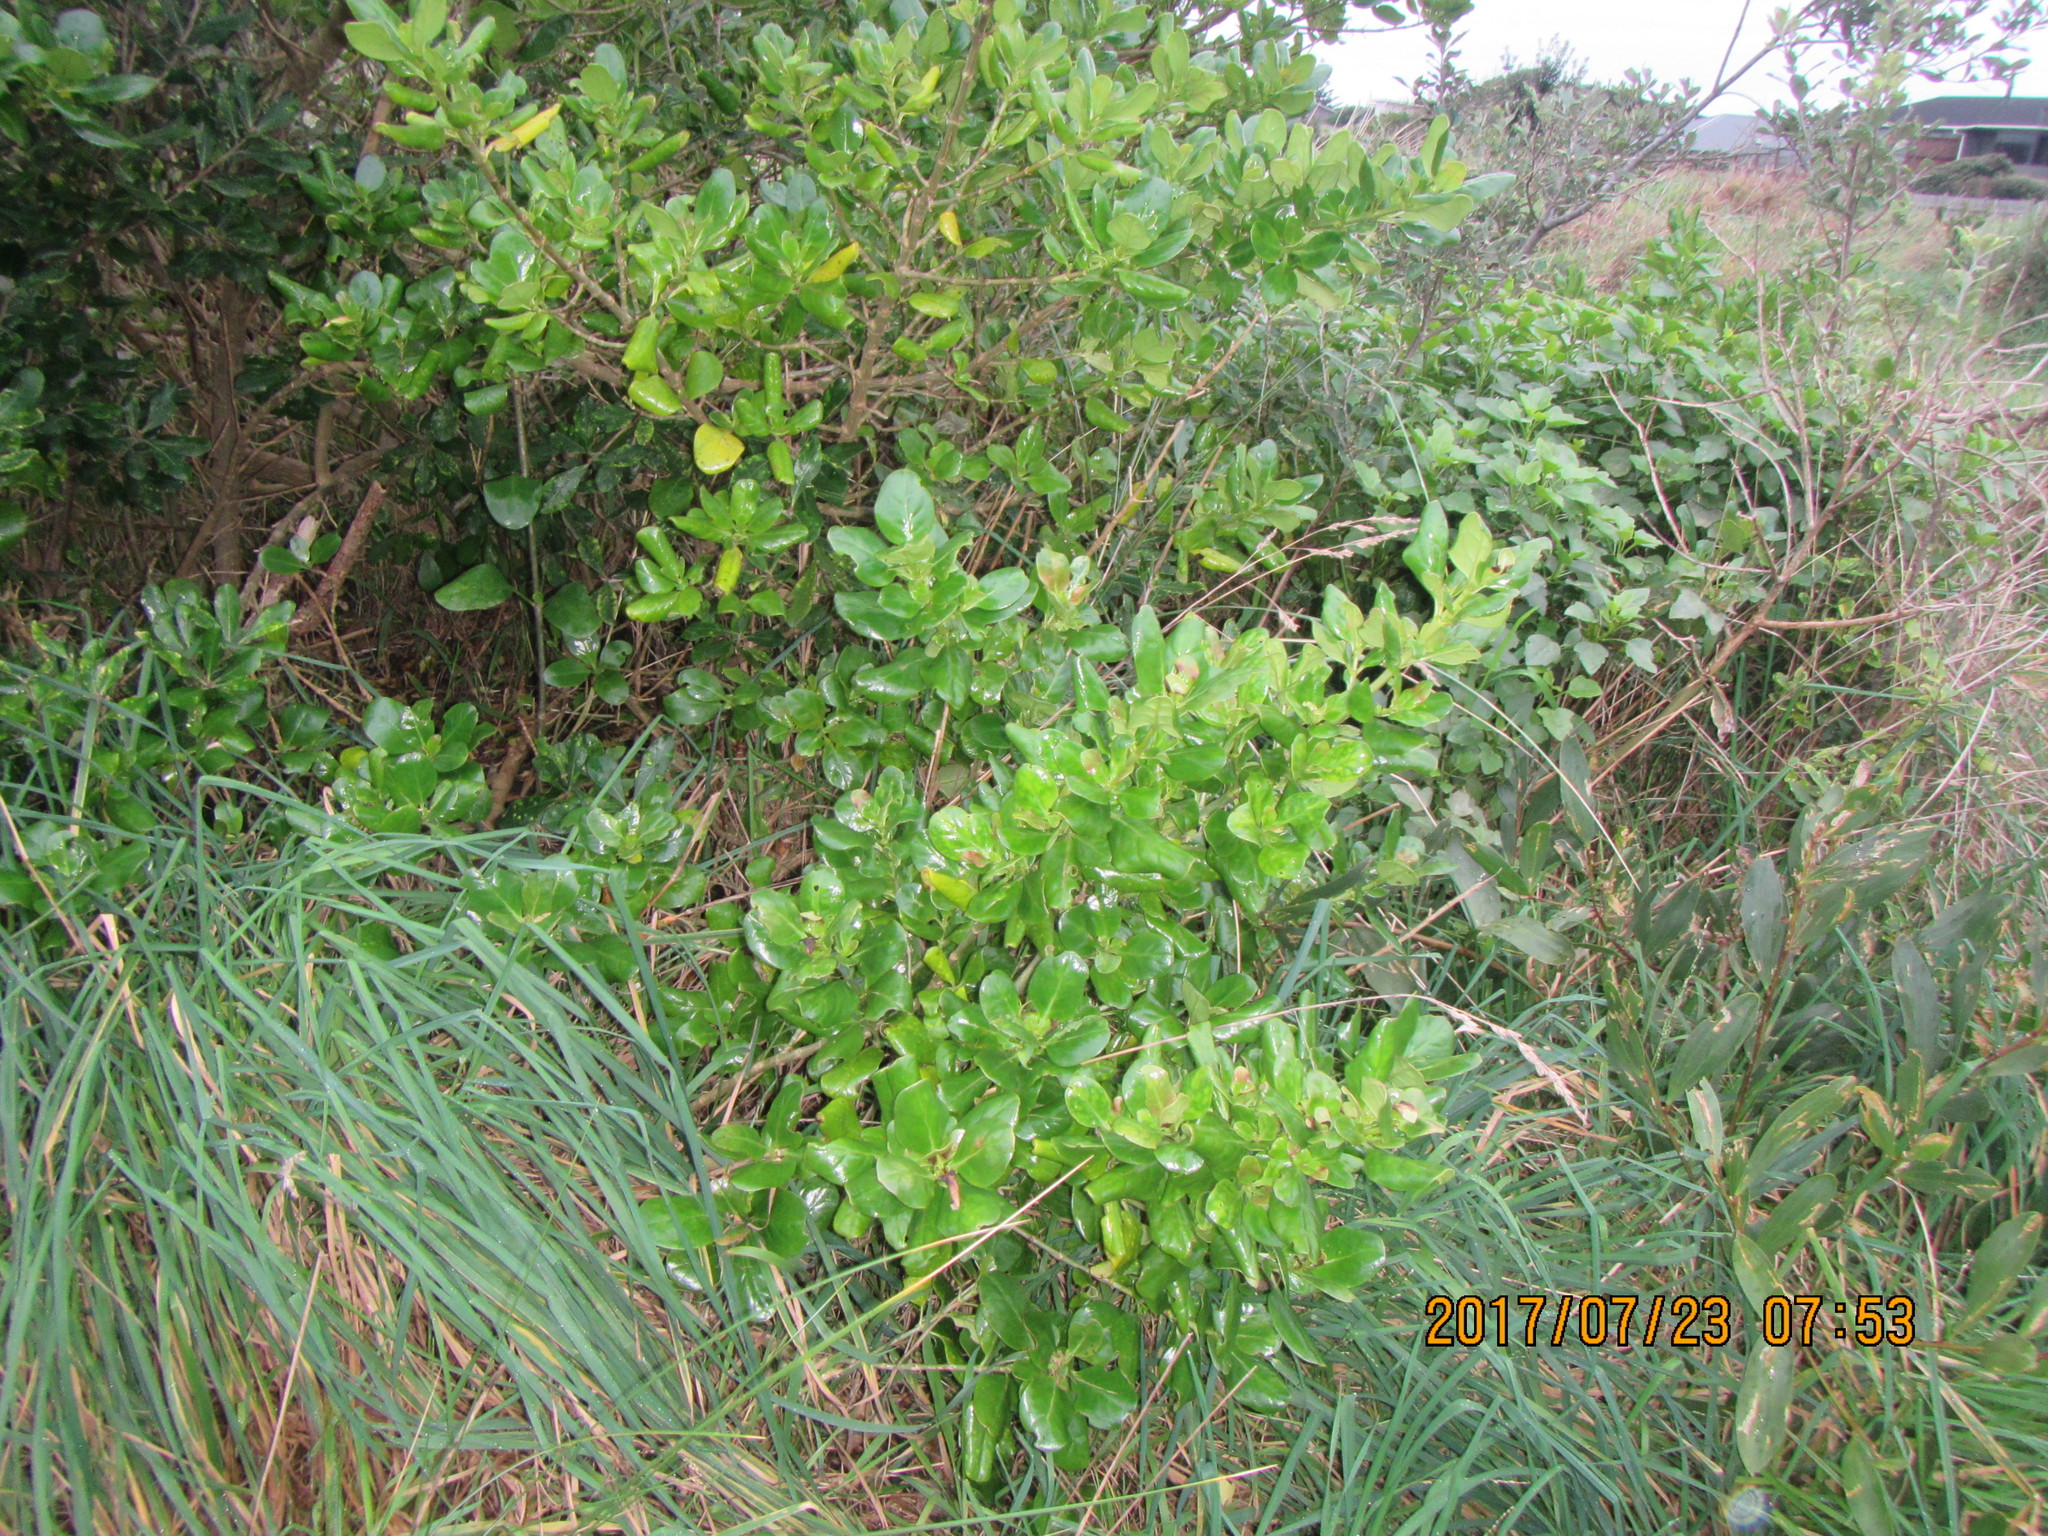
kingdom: Plantae
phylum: Tracheophyta
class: Magnoliopsida
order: Gentianales
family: Rubiaceae
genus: Coprosma
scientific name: Coprosma repens
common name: Tree bedstraw
